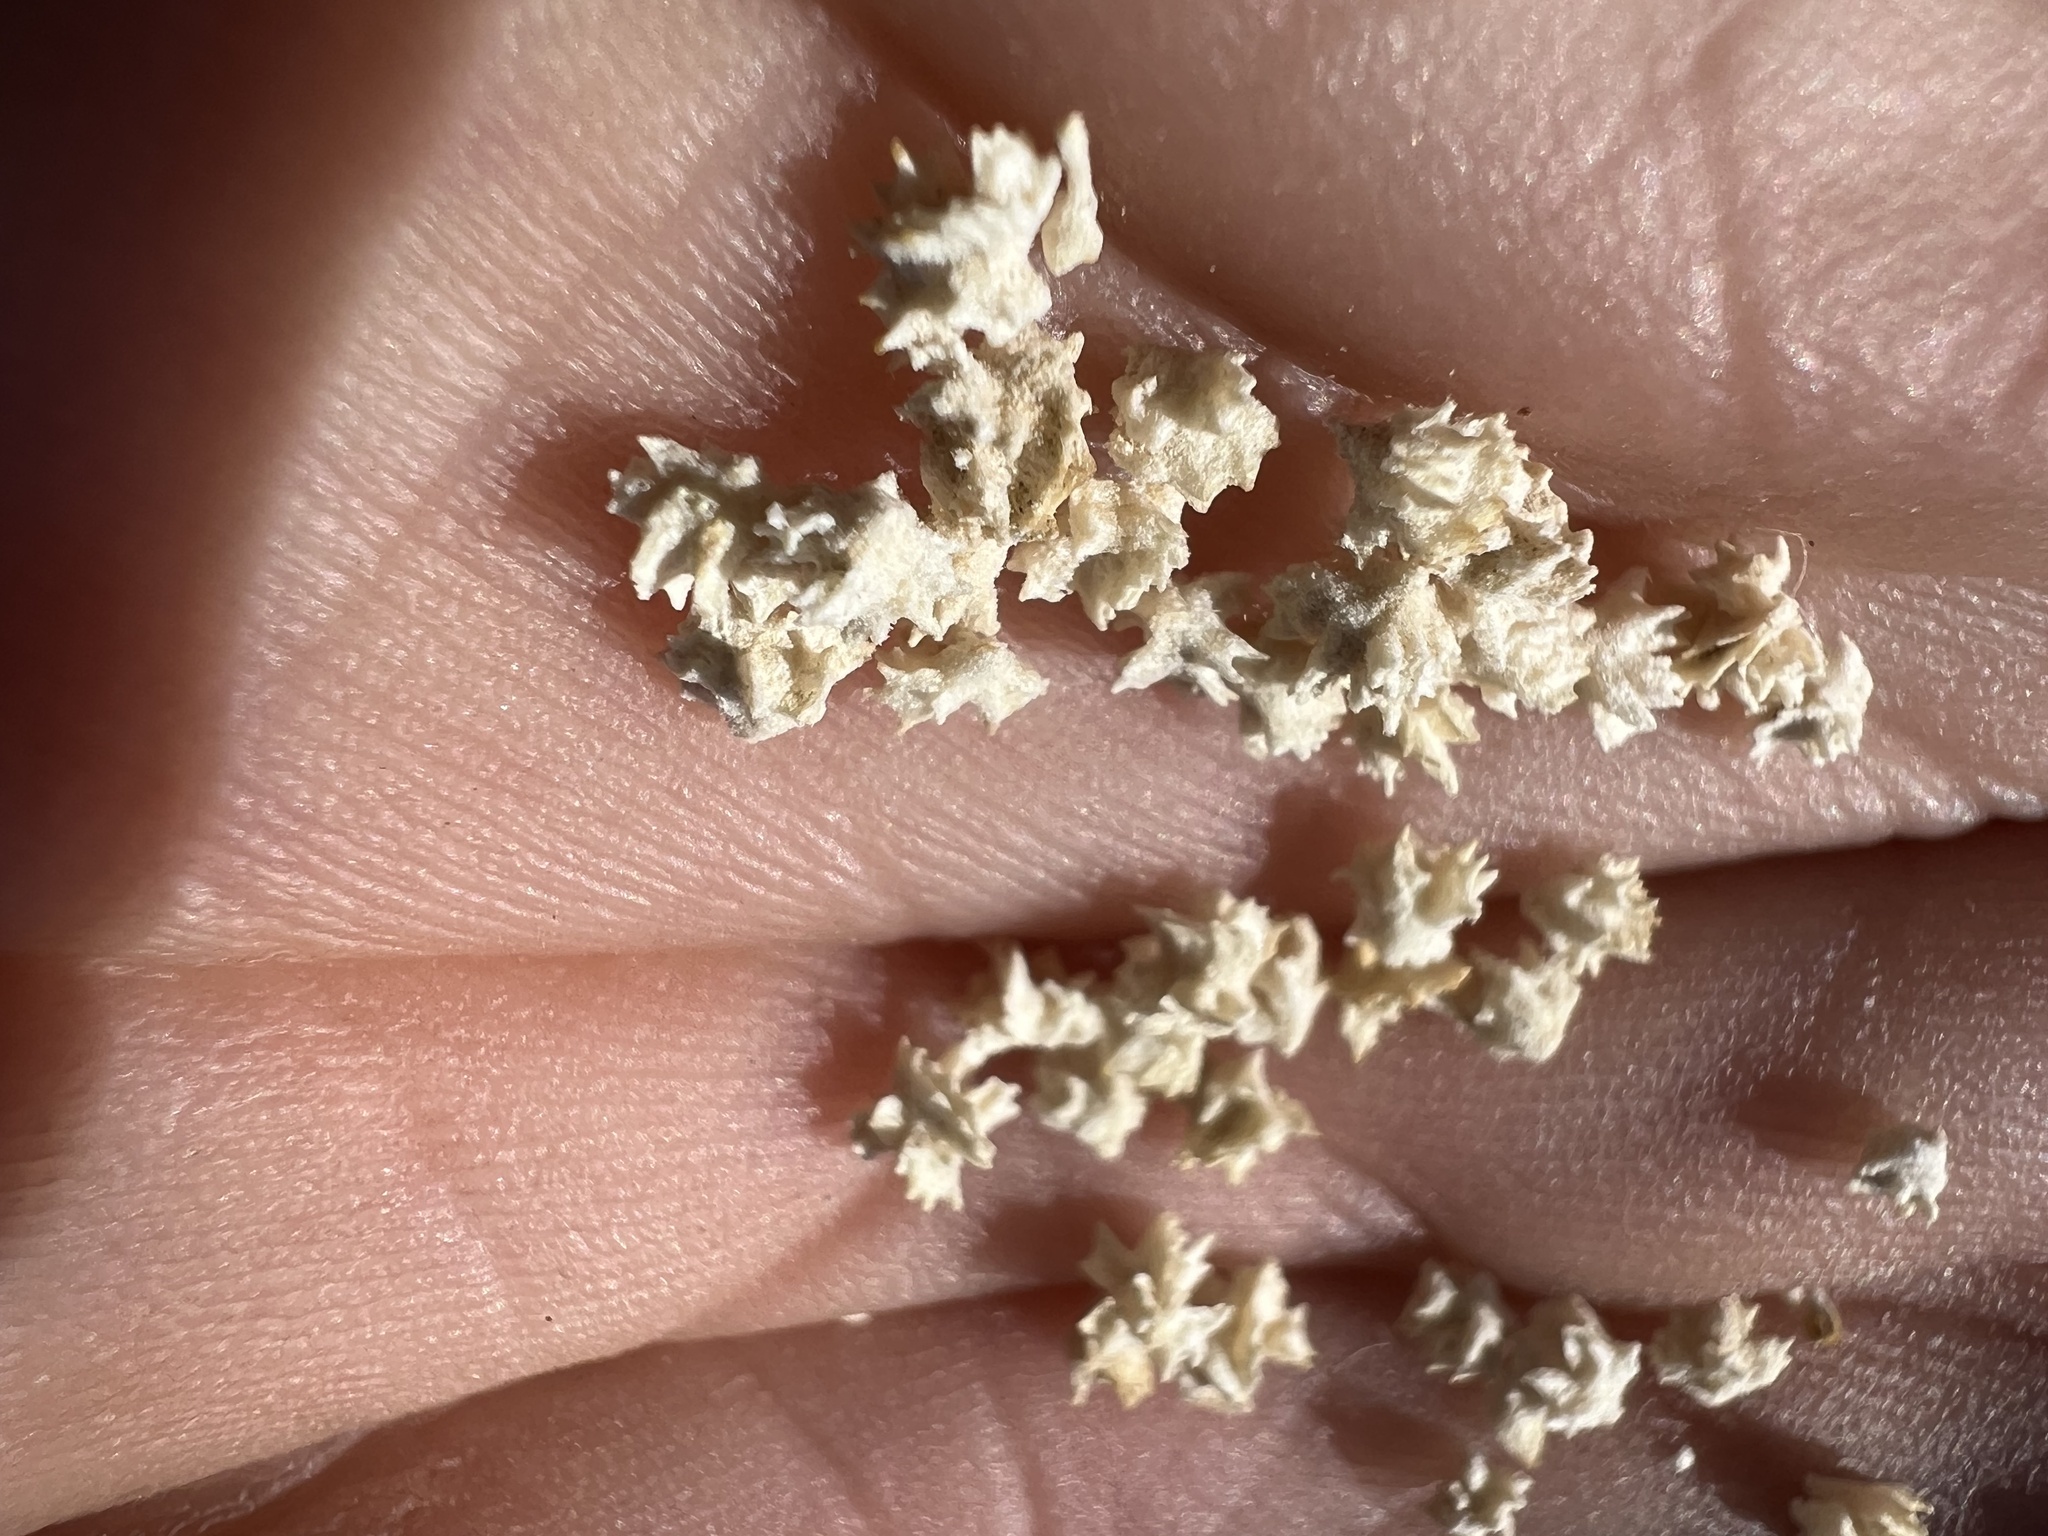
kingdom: Plantae
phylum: Tracheophyta
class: Magnoliopsida
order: Caryophyllales
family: Amaranthaceae
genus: Atriplex
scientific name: Atriplex polycarpa
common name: Desert saltbush
